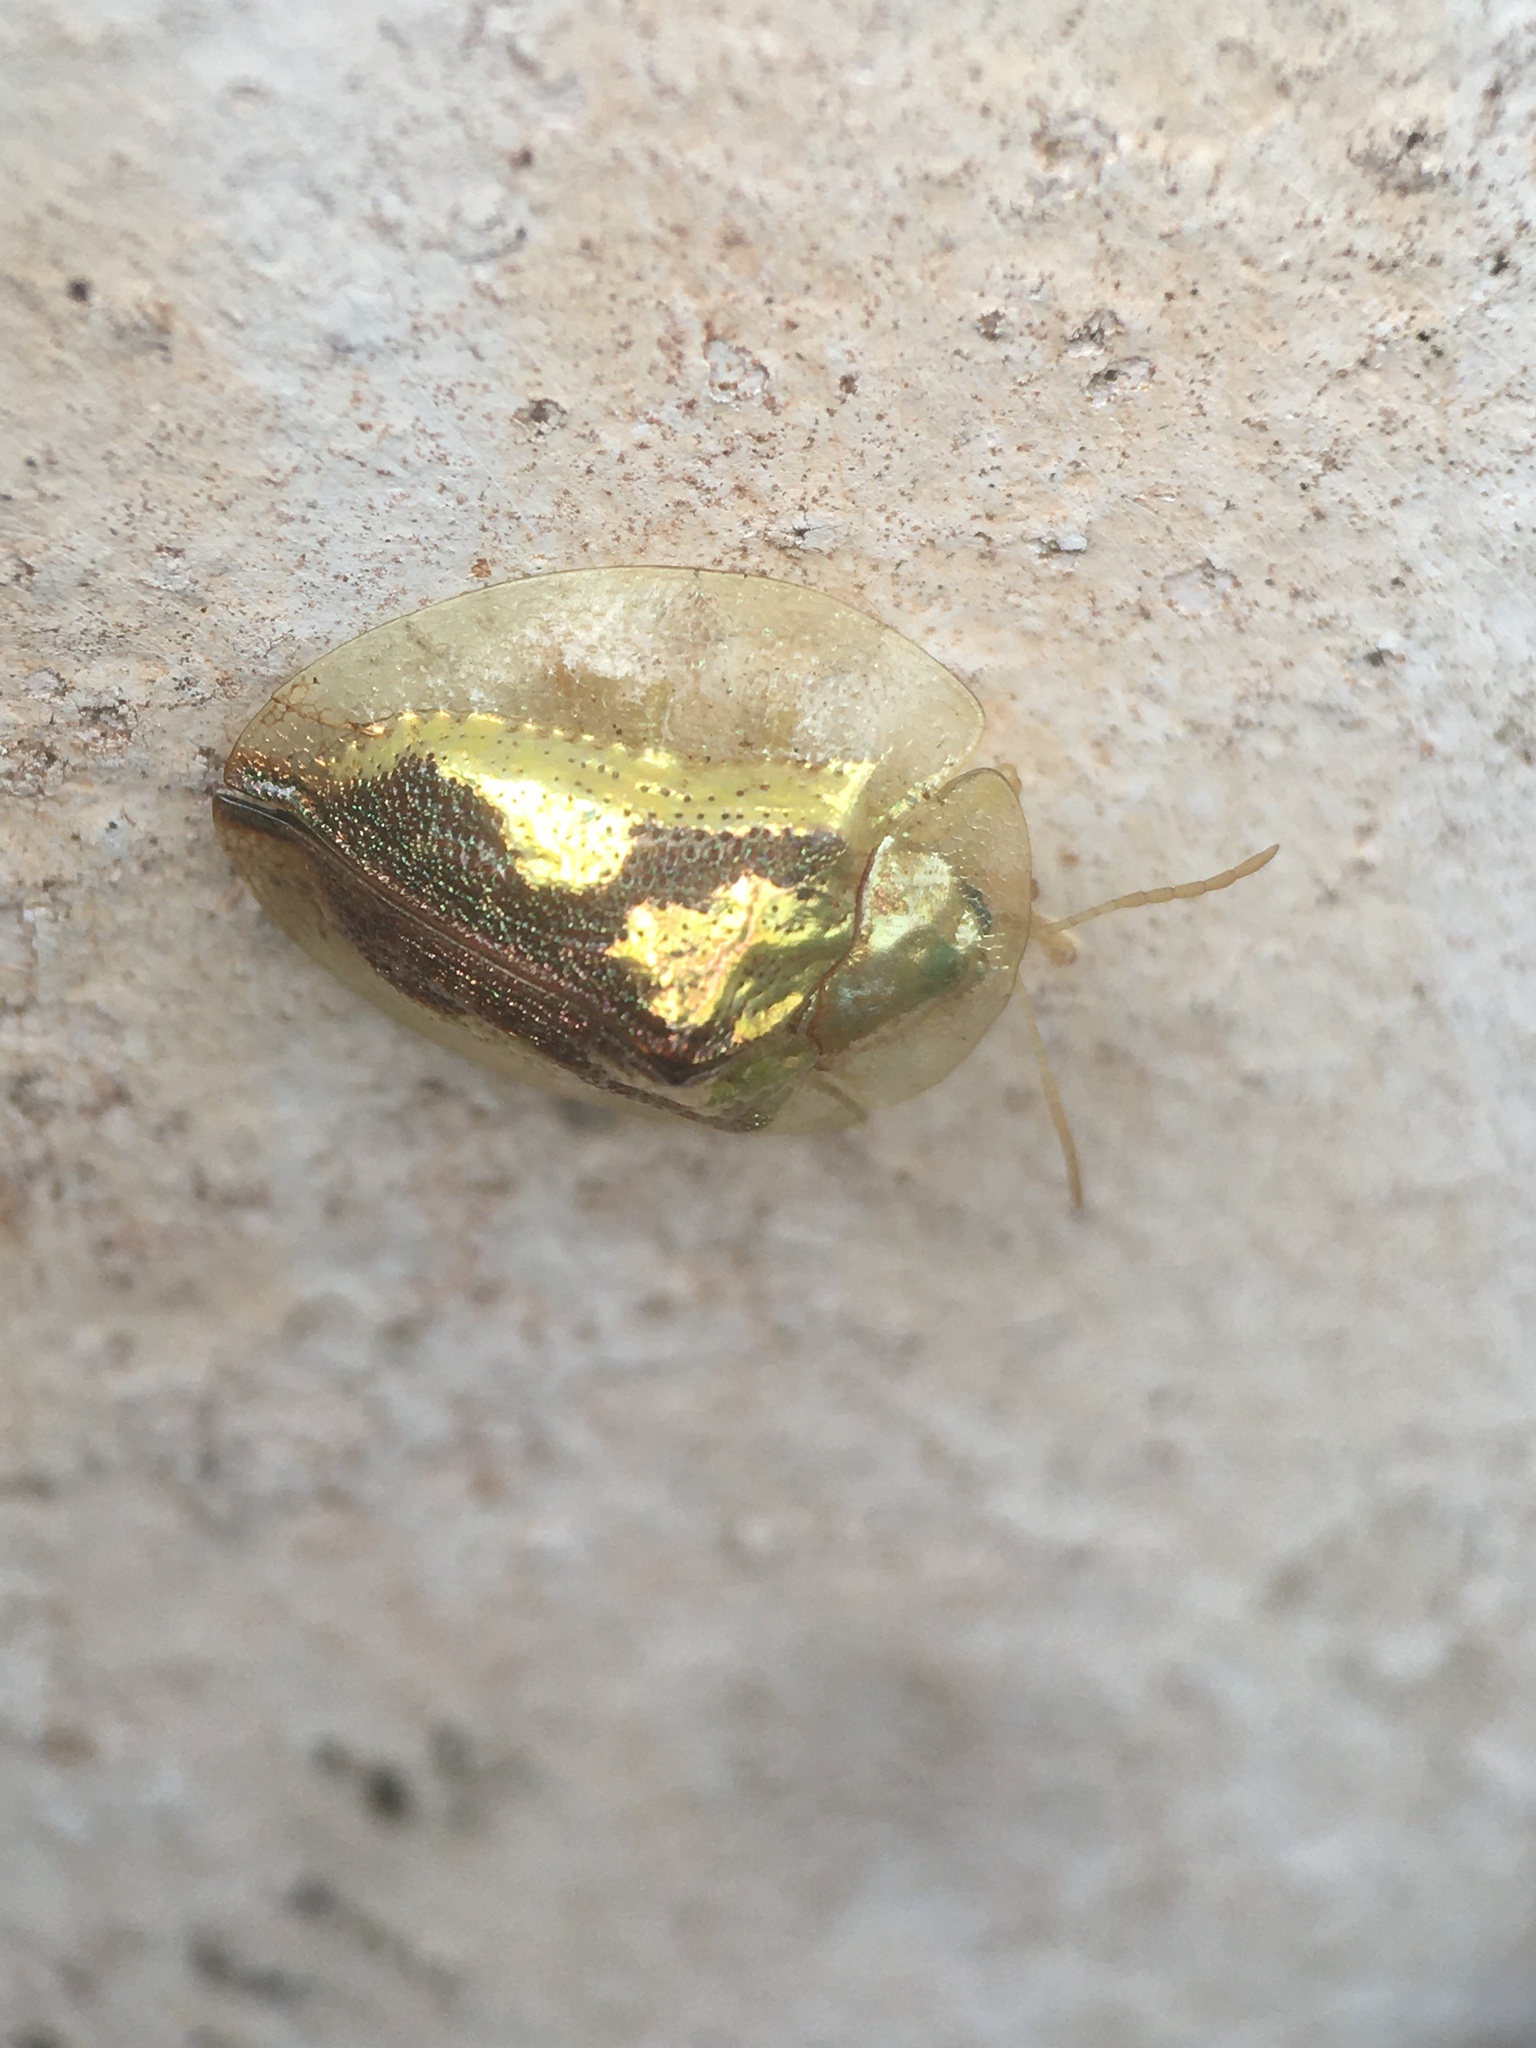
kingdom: Animalia
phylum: Arthropoda
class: Insecta
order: Coleoptera
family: Chrysomelidae
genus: Coptocycla
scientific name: Coptocycla contemta
